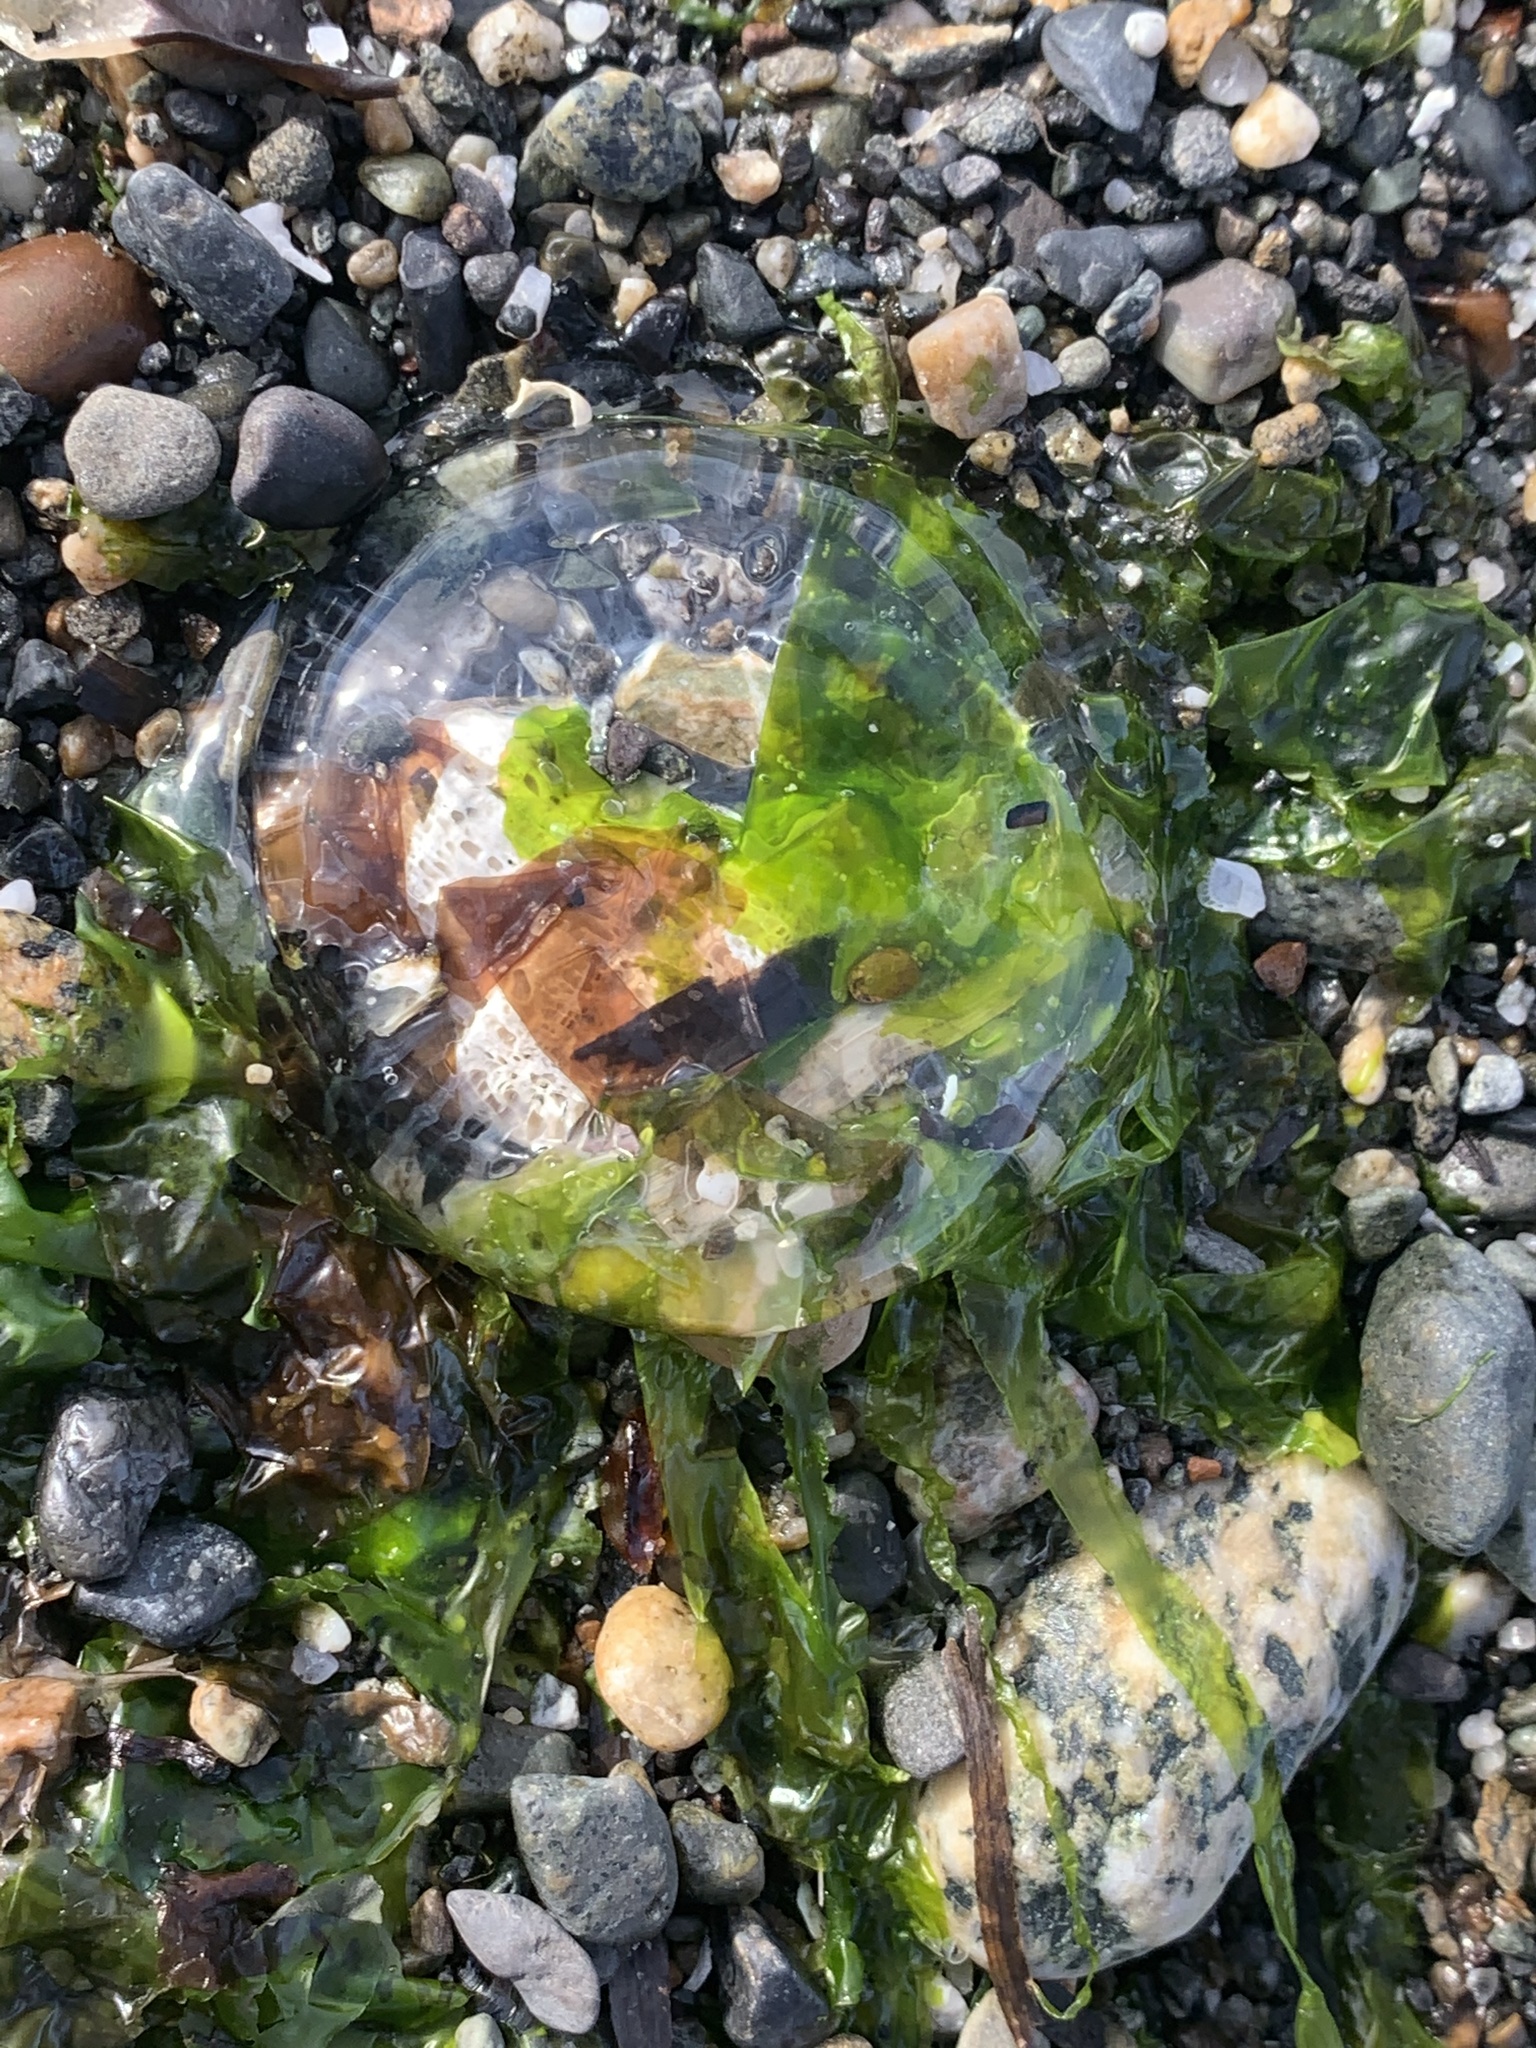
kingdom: Animalia
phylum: Cnidaria
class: Hydrozoa
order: Leptothecata
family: Aequoreidae
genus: Aequorea
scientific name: Aequorea victoria
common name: Water jellyfish
